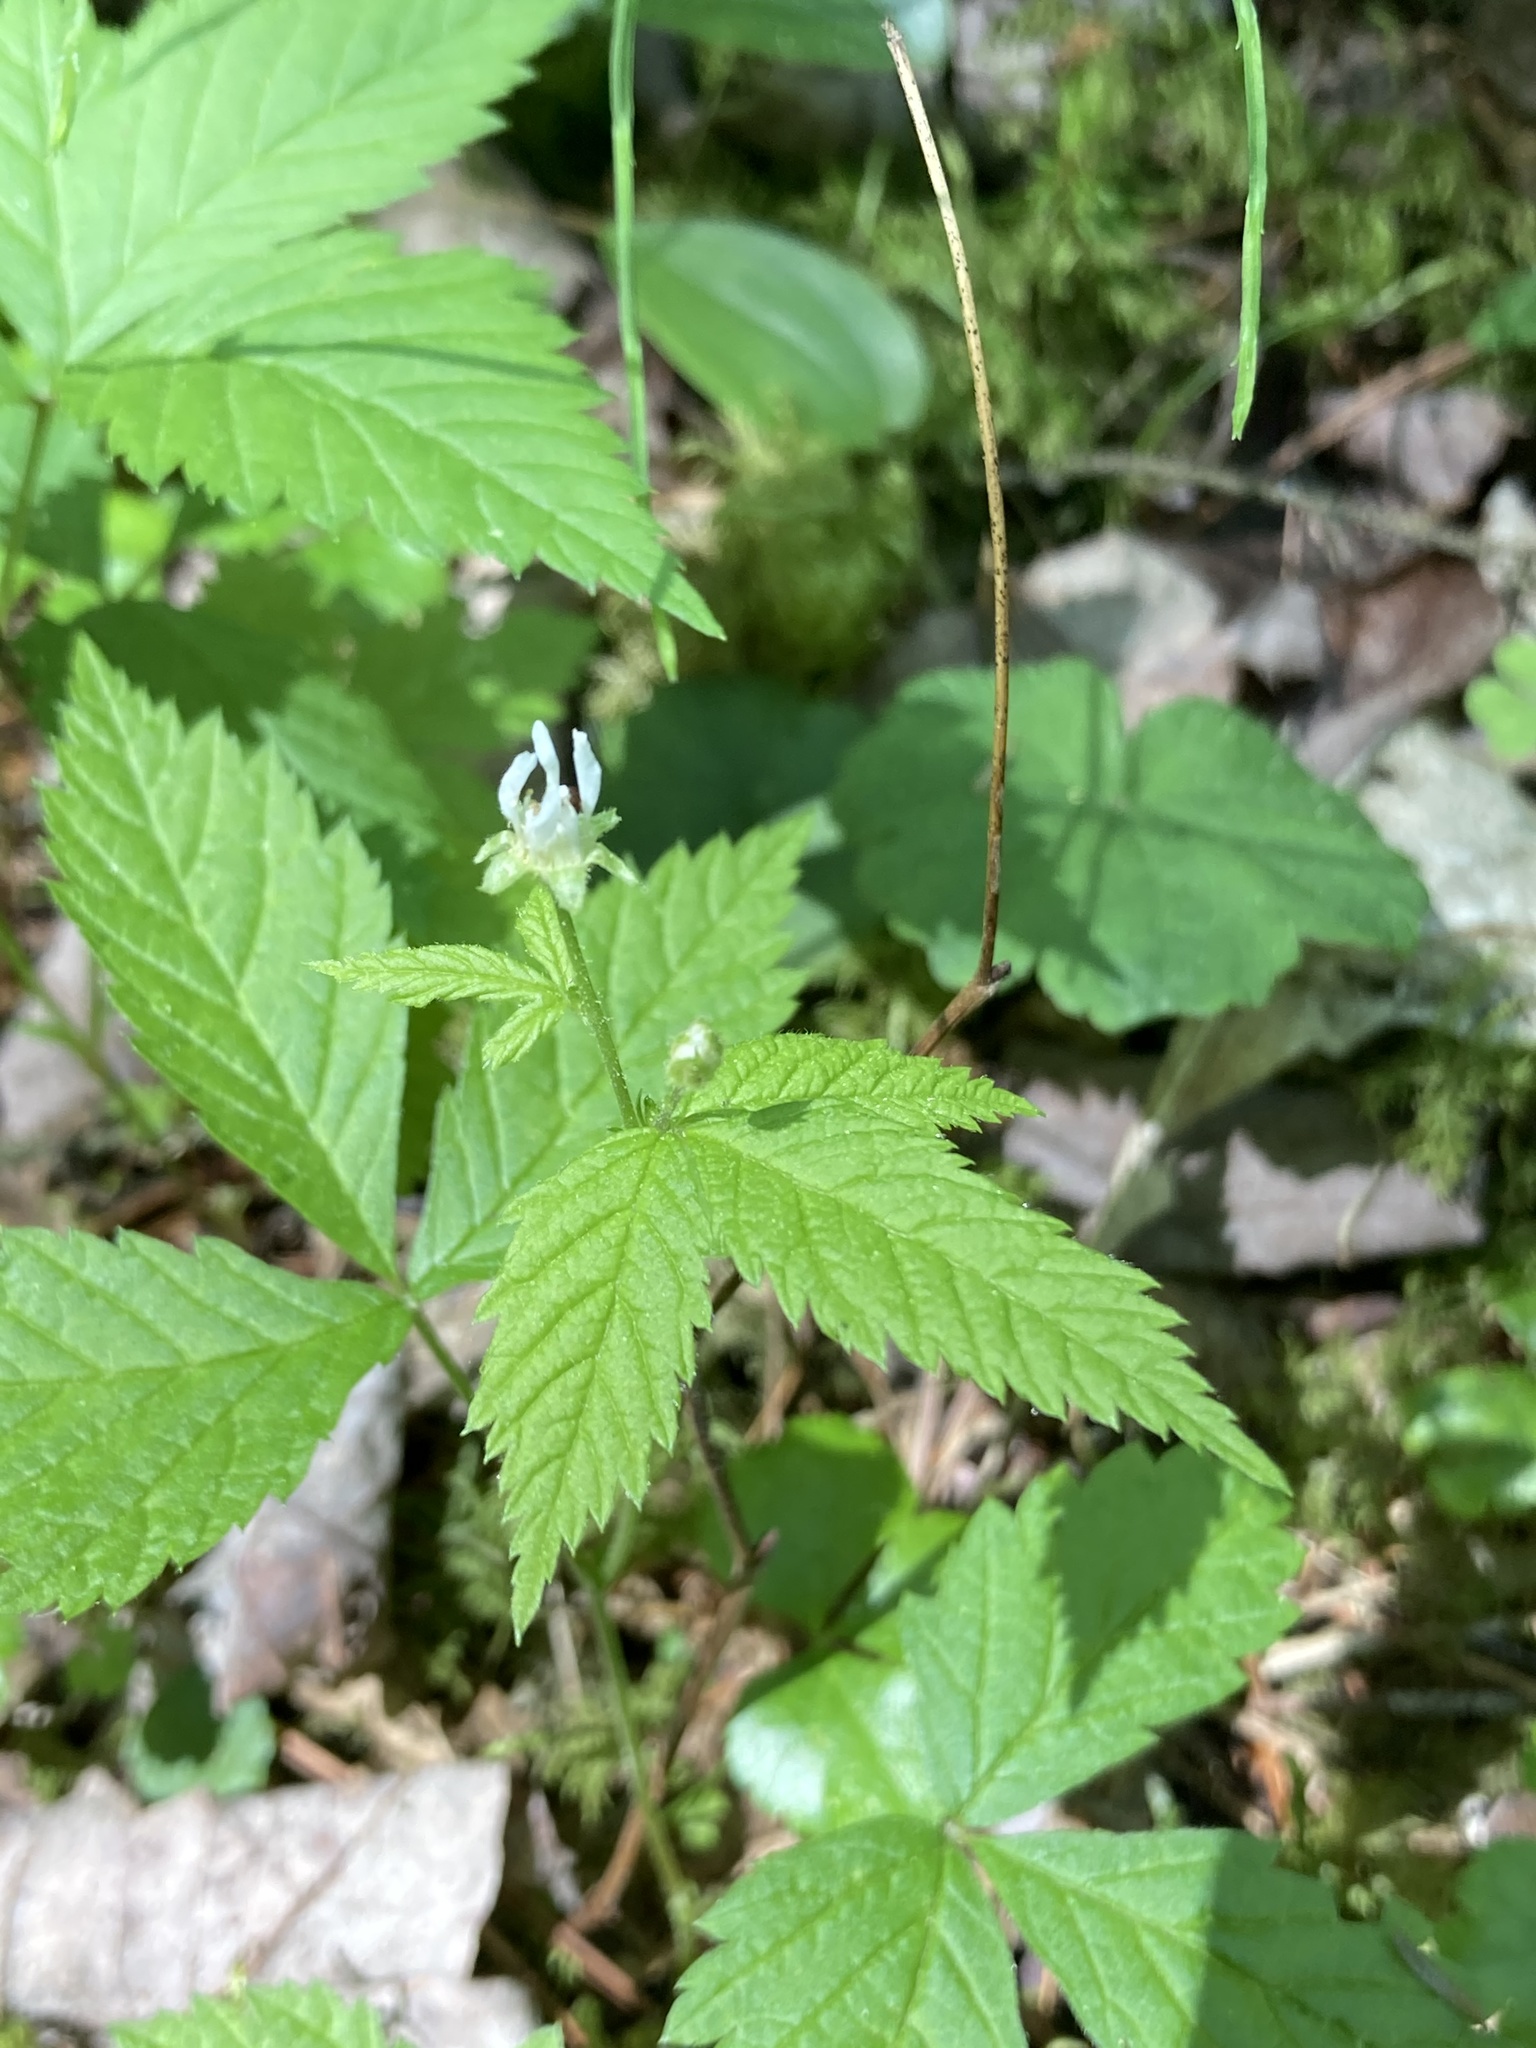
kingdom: Plantae
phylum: Tracheophyta
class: Magnoliopsida
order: Rosales
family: Rosaceae
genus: Rubus
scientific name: Rubus pubescens
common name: Dwarf raspberry
